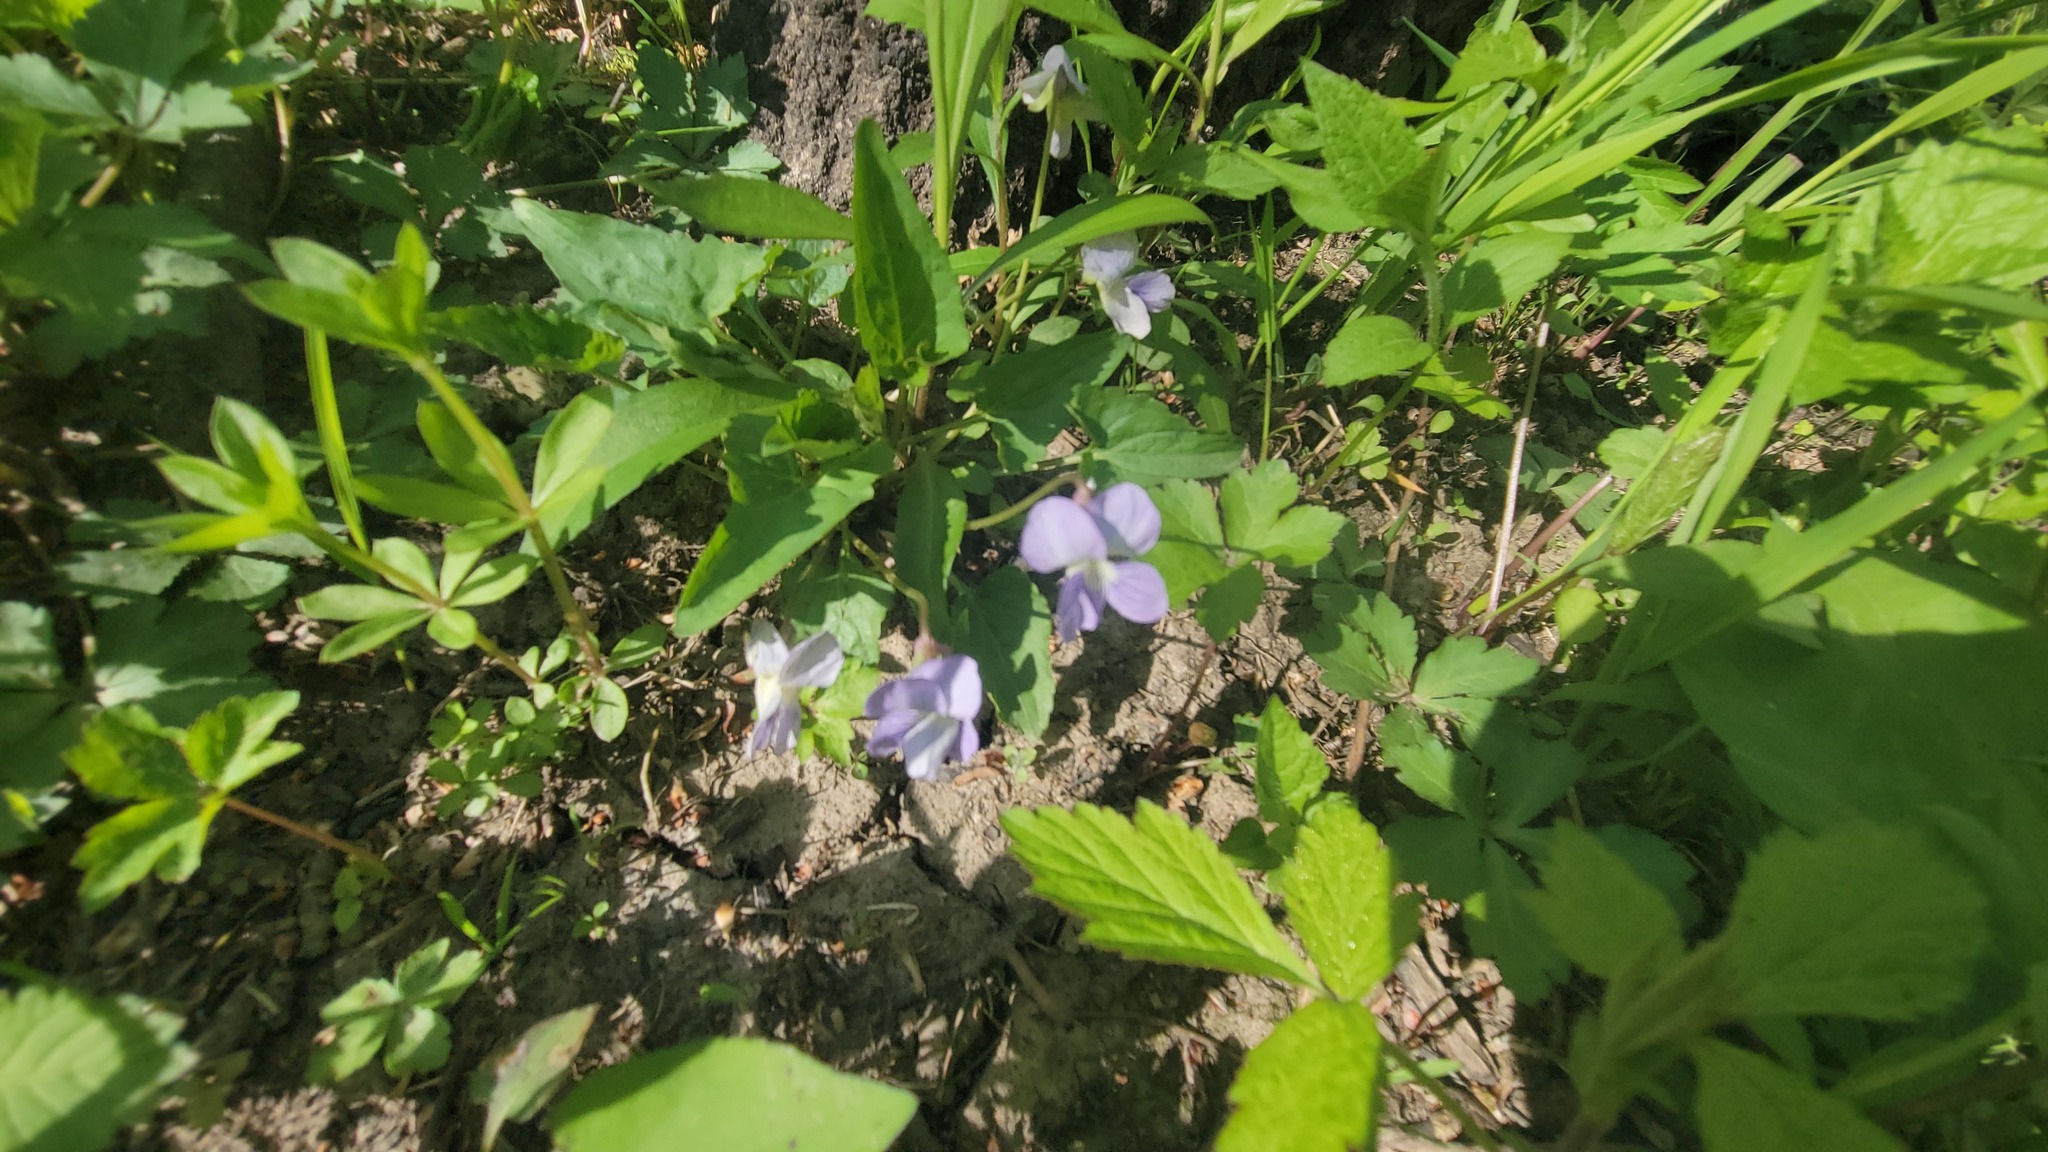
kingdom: Plantae
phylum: Tracheophyta
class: Magnoliopsida
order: Malpighiales
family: Violaceae
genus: Viola
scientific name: Viola missouriensis
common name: Missouri violet
